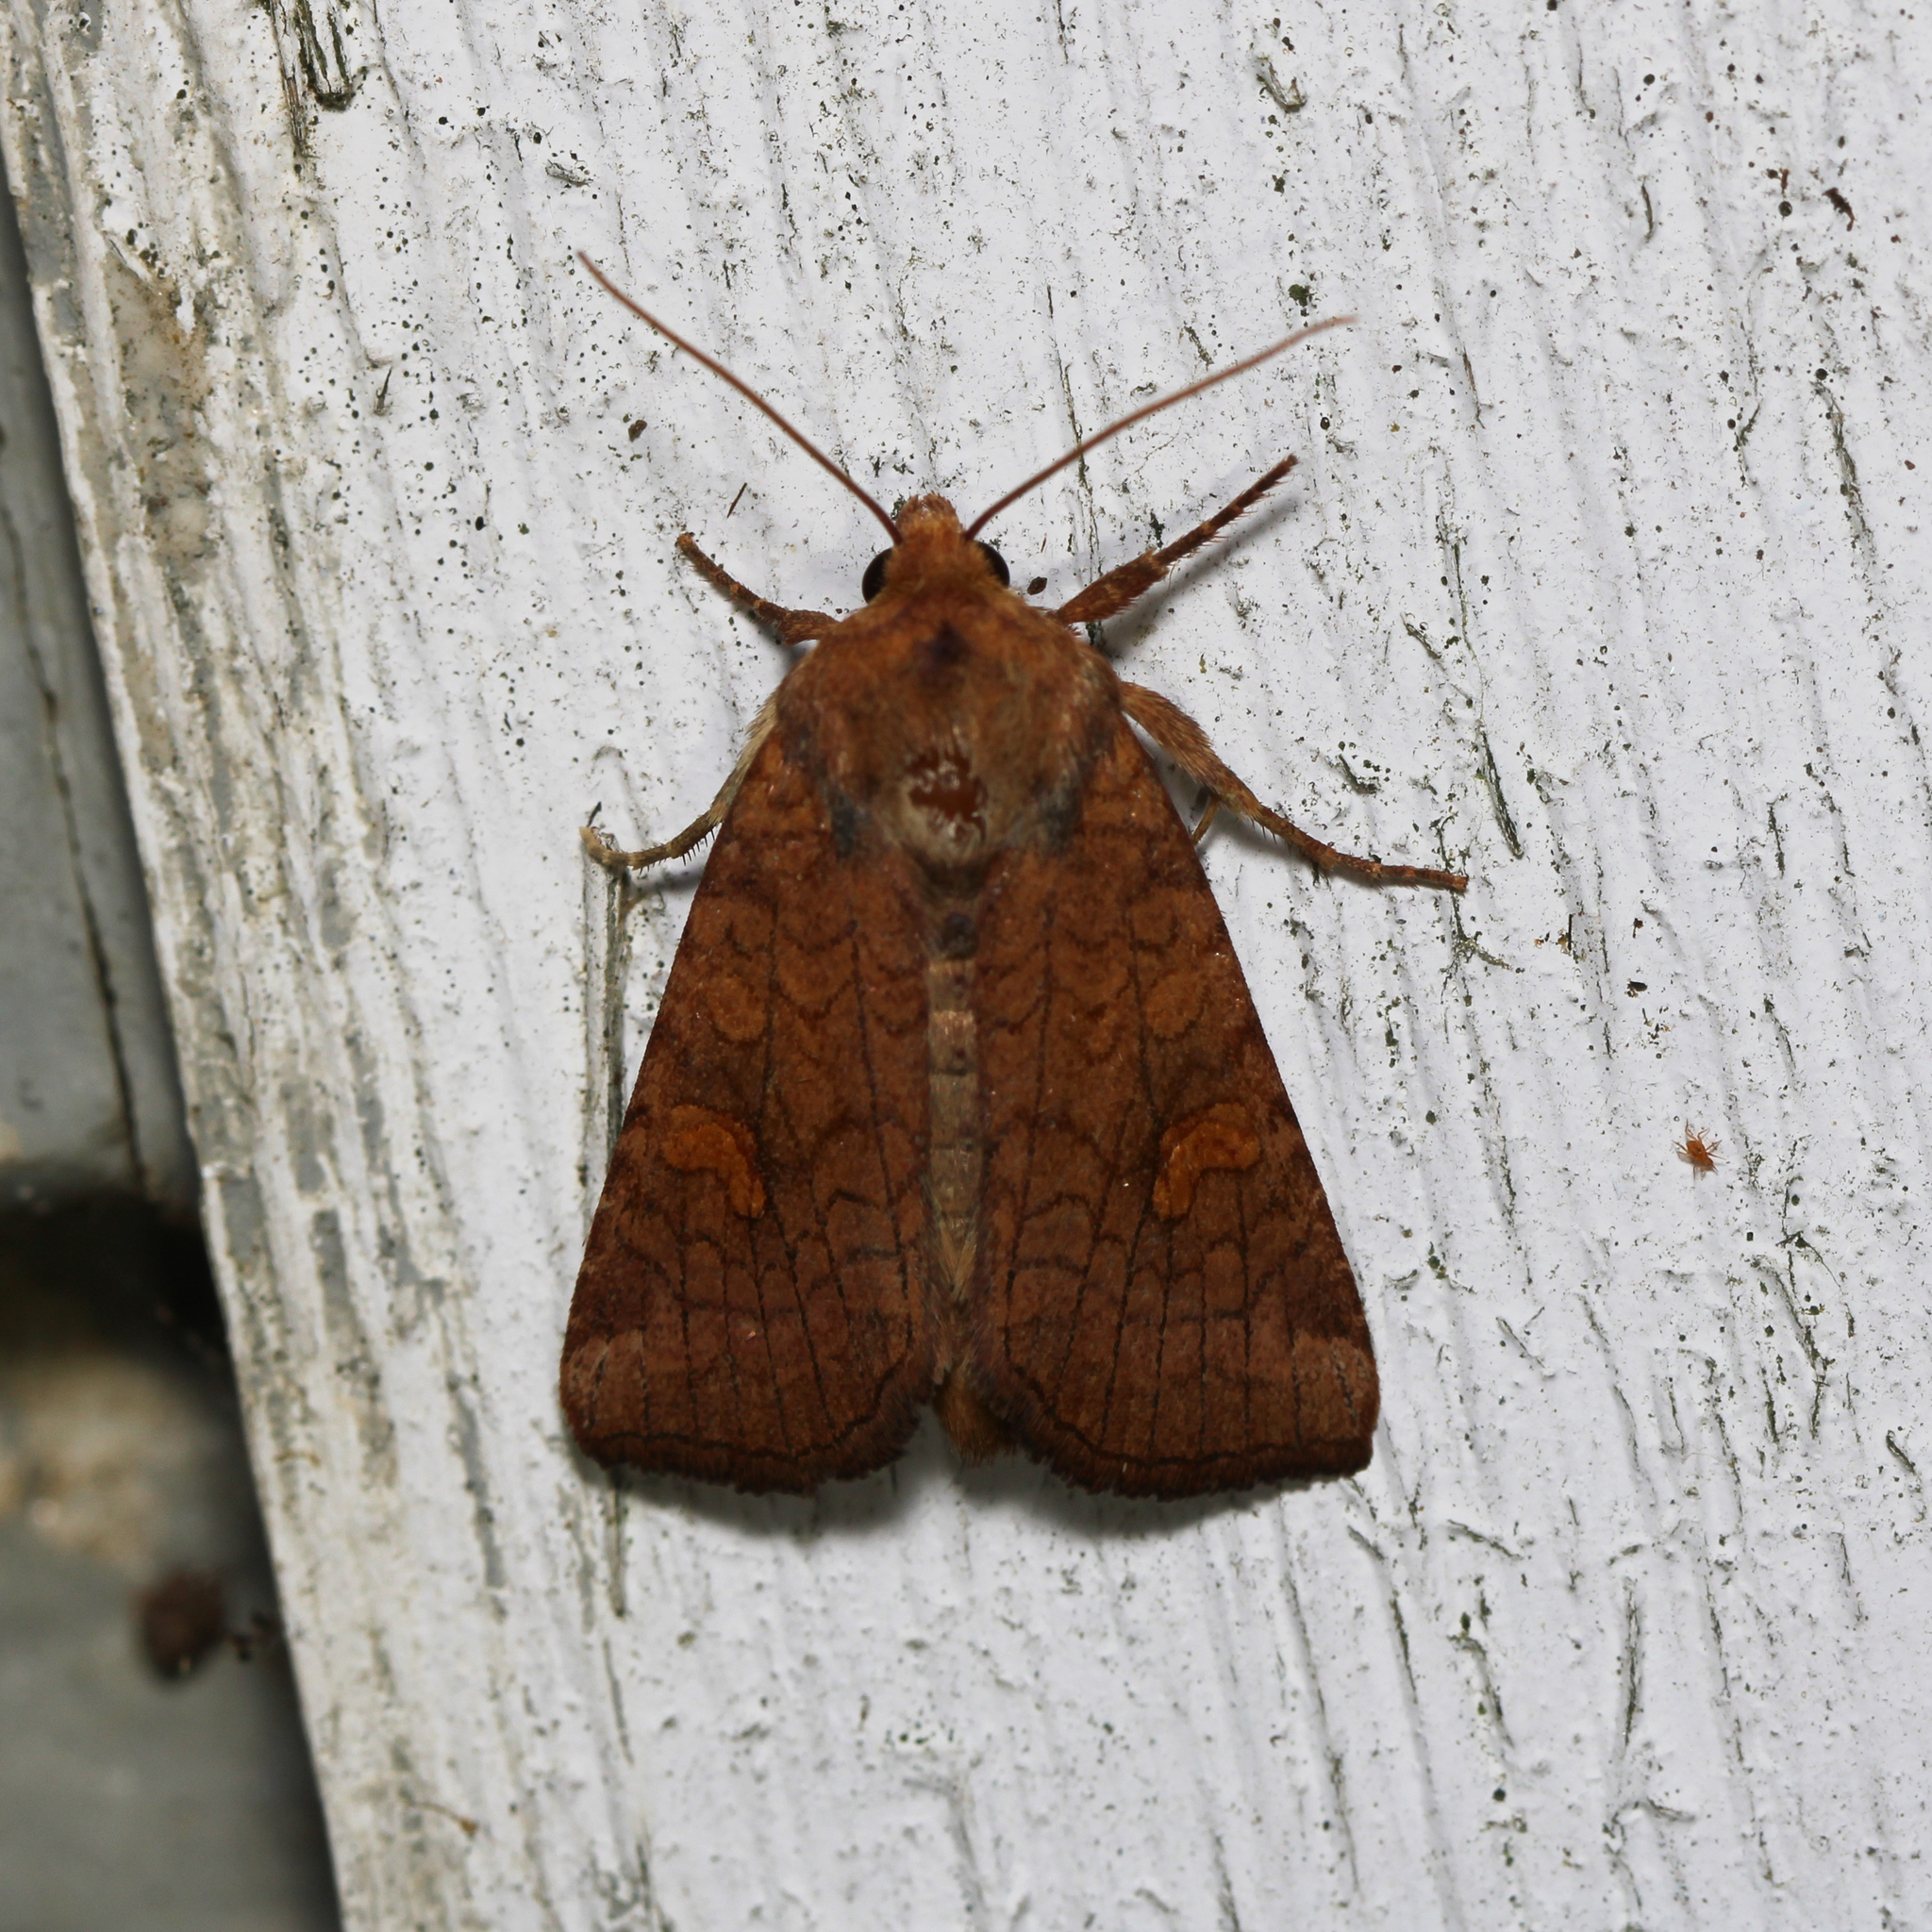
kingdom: Animalia
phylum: Arthropoda
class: Insecta
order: Lepidoptera
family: Noctuidae
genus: Amphipoea
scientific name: Amphipoea
